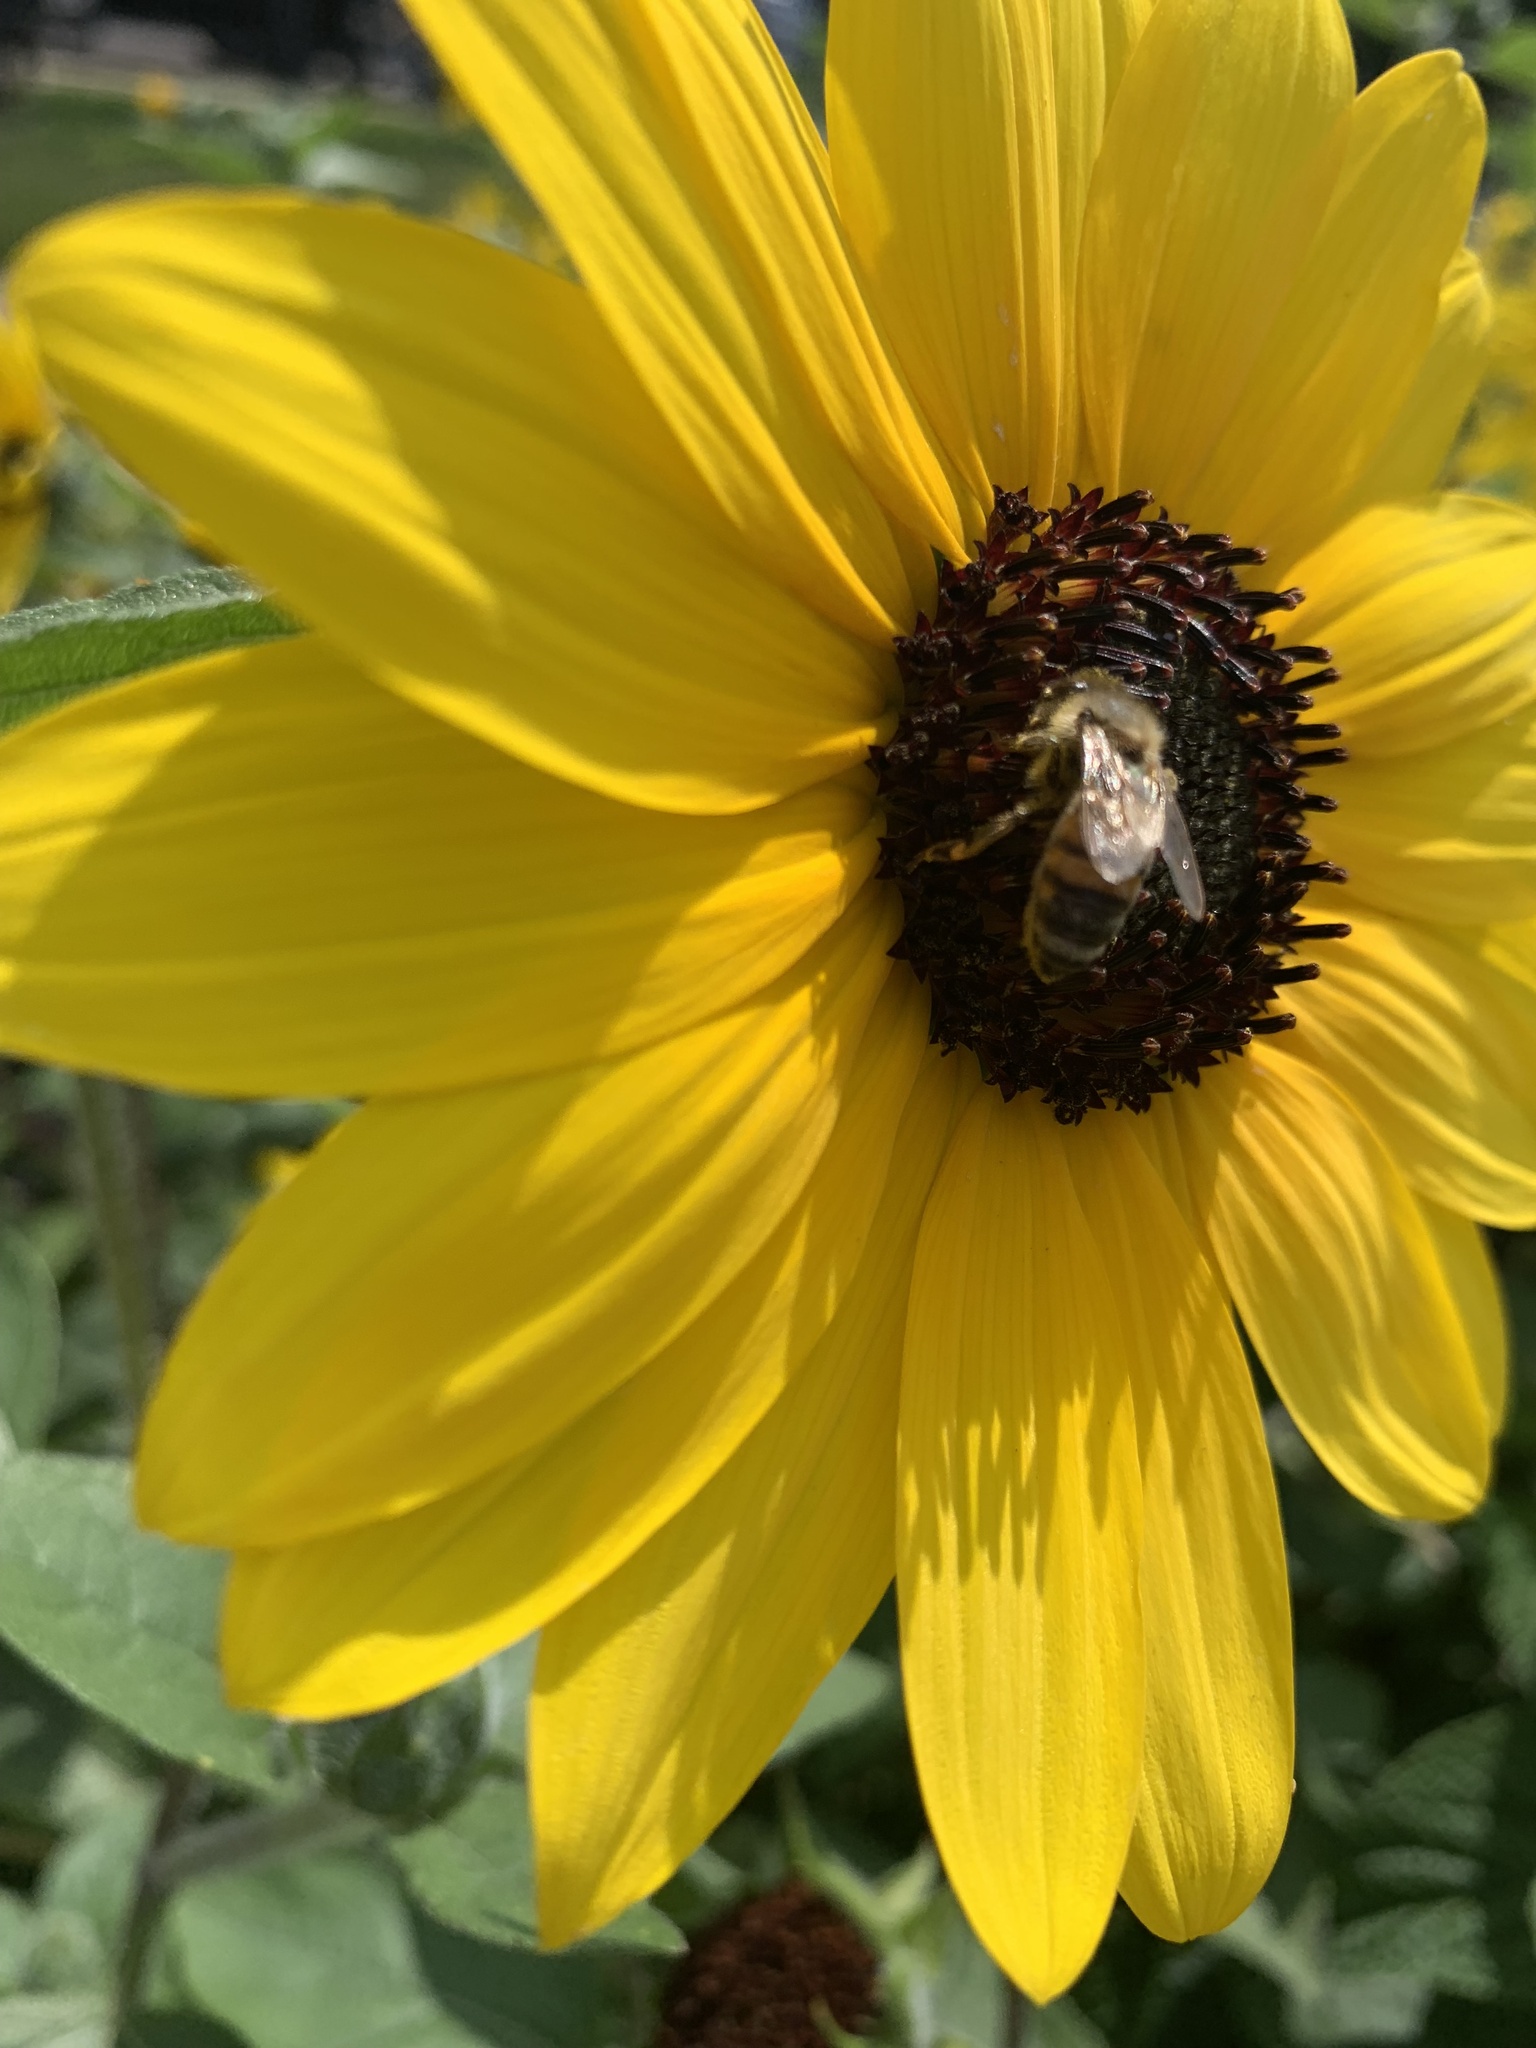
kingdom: Animalia
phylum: Arthropoda
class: Insecta
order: Hymenoptera
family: Apidae
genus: Apis
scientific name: Apis mellifera
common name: Honey bee
